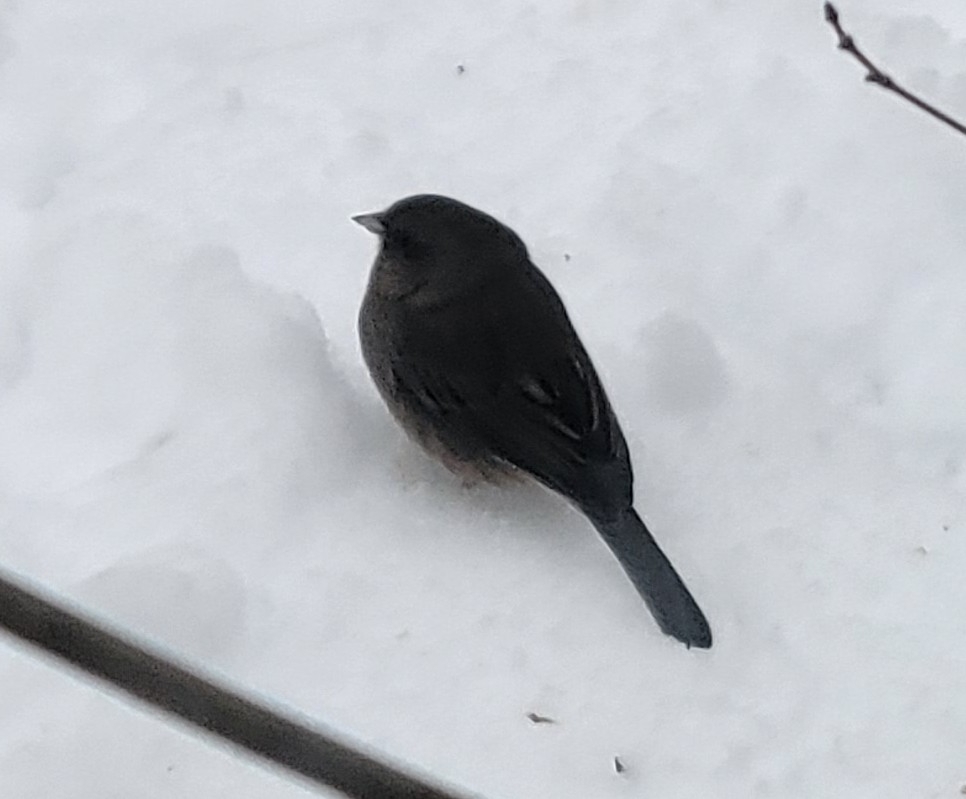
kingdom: Animalia
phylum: Chordata
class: Aves
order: Passeriformes
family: Passerellidae
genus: Junco
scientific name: Junco hyemalis
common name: Dark-eyed junco
